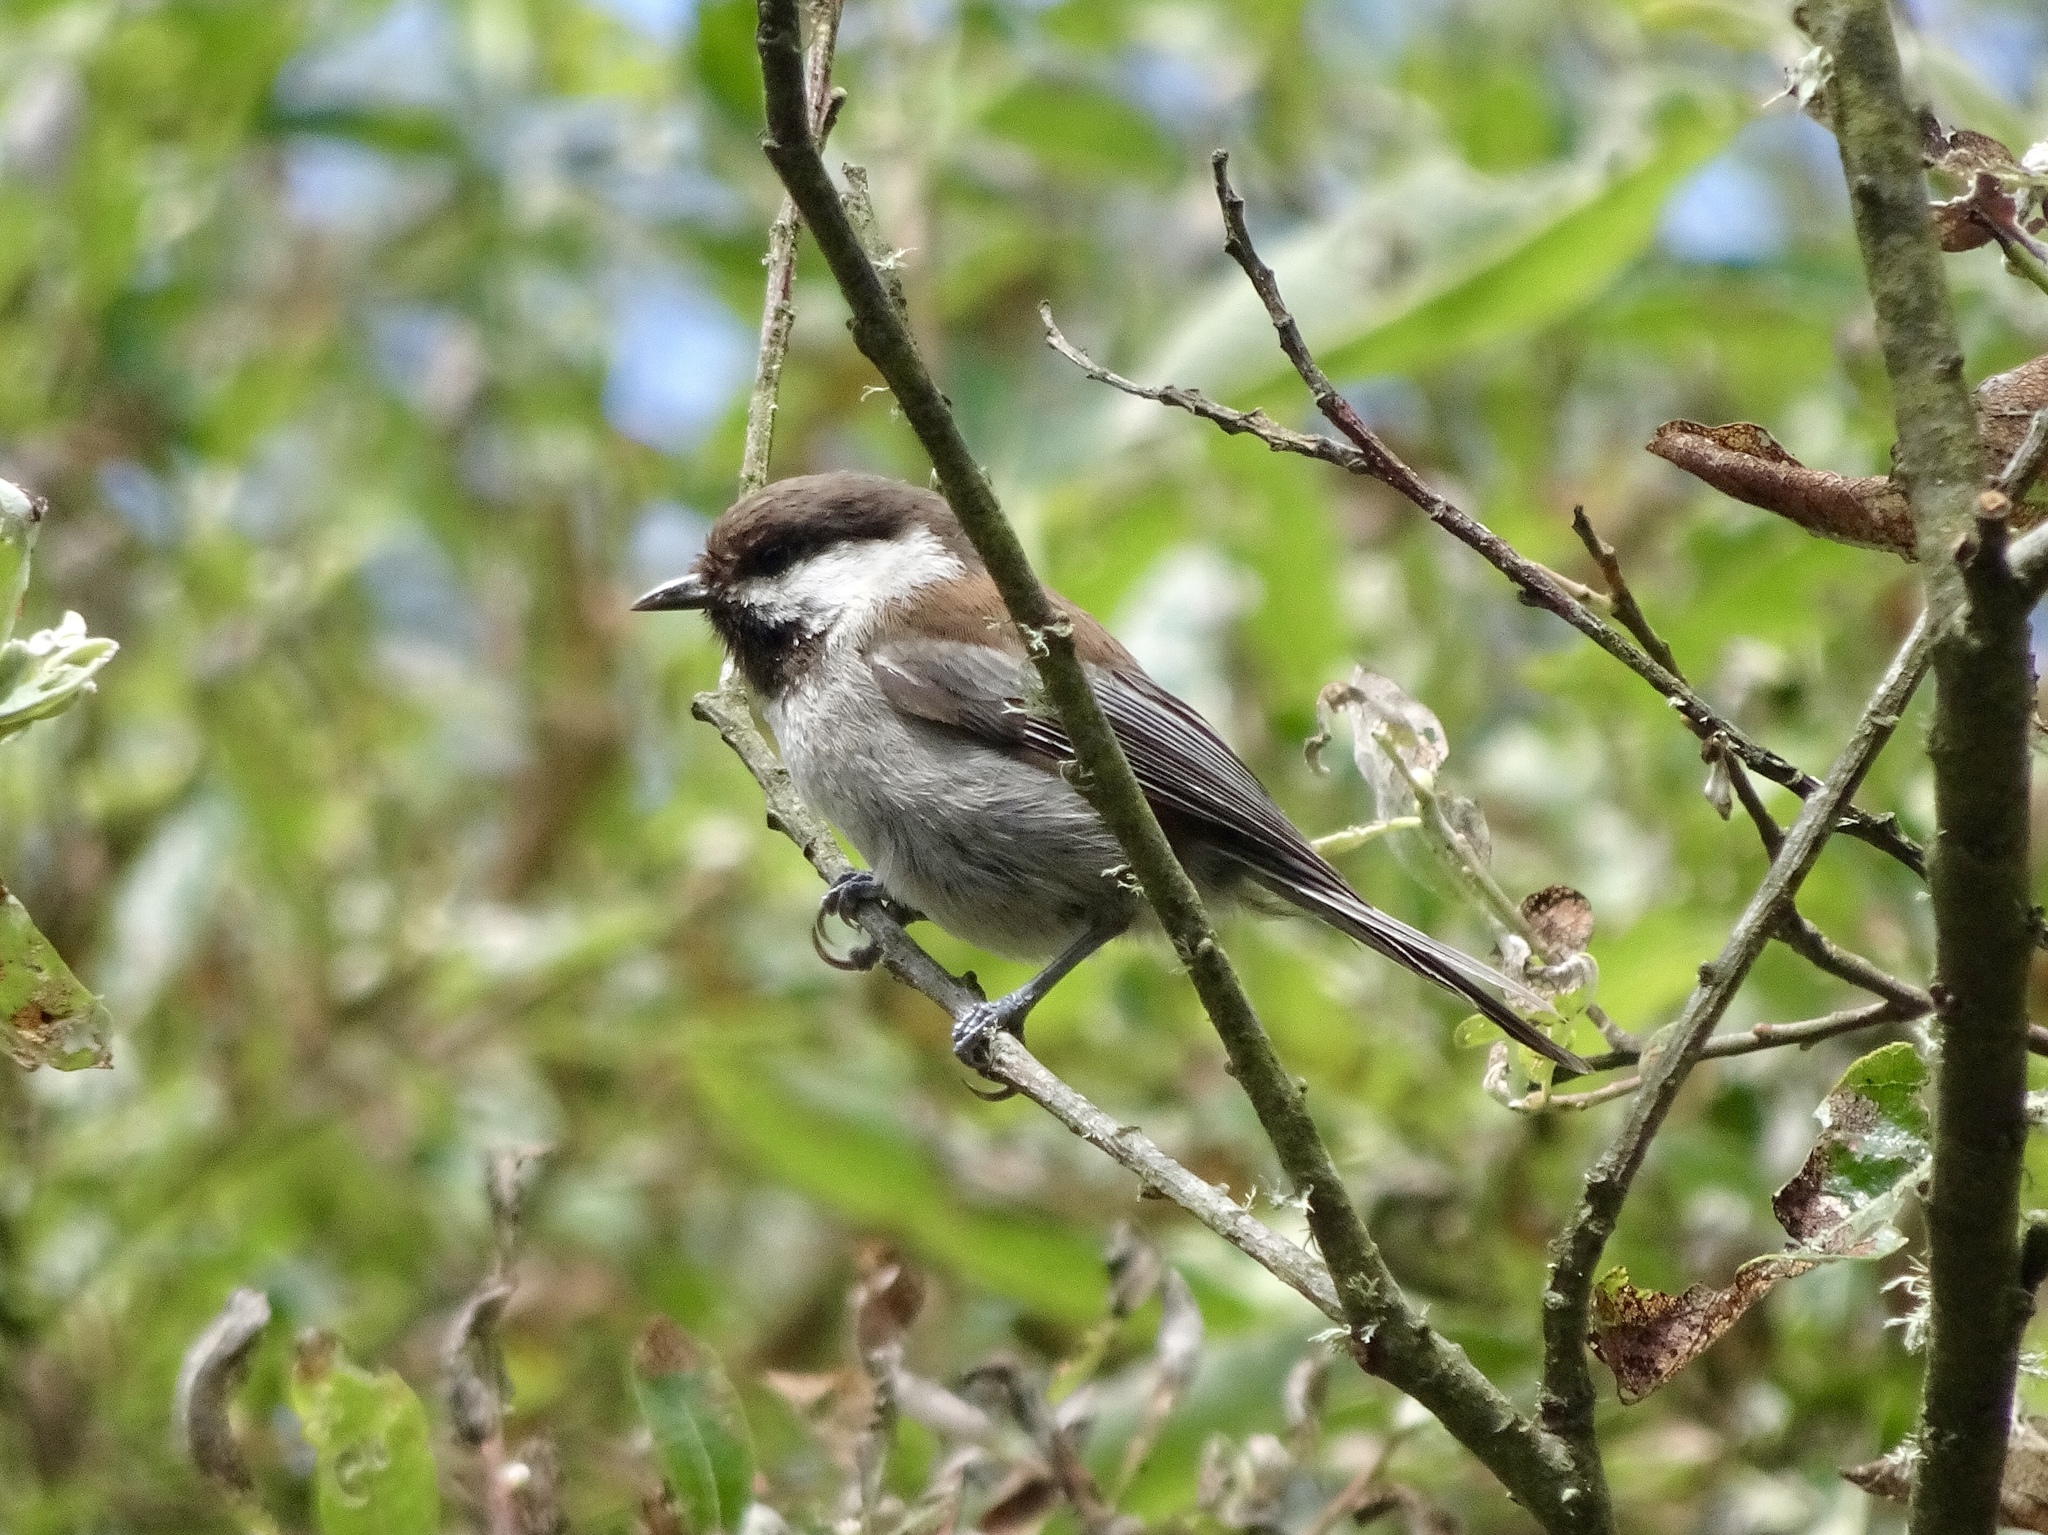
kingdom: Animalia
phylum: Chordata
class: Aves
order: Passeriformes
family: Paridae
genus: Poecile
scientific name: Poecile rufescens
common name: Chestnut-backed chickadee
